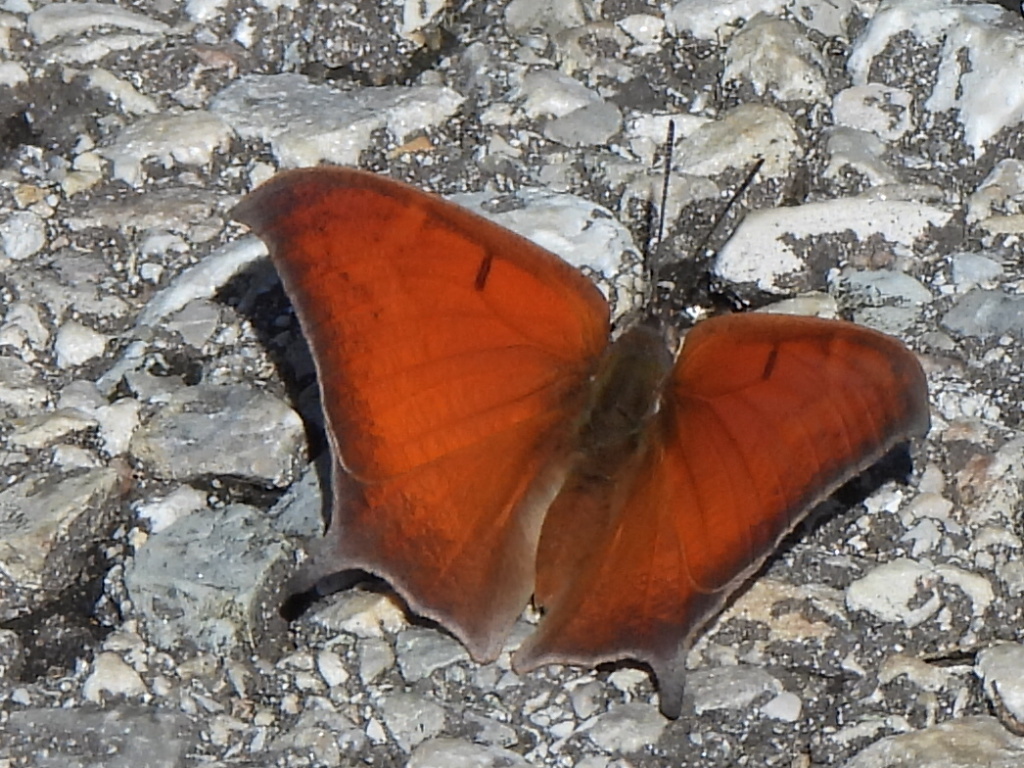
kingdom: Animalia
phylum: Arthropoda
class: Insecta
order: Lepidoptera
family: Nymphalidae
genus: Anaea
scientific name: Anaea andria
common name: Goatweed leafwing
